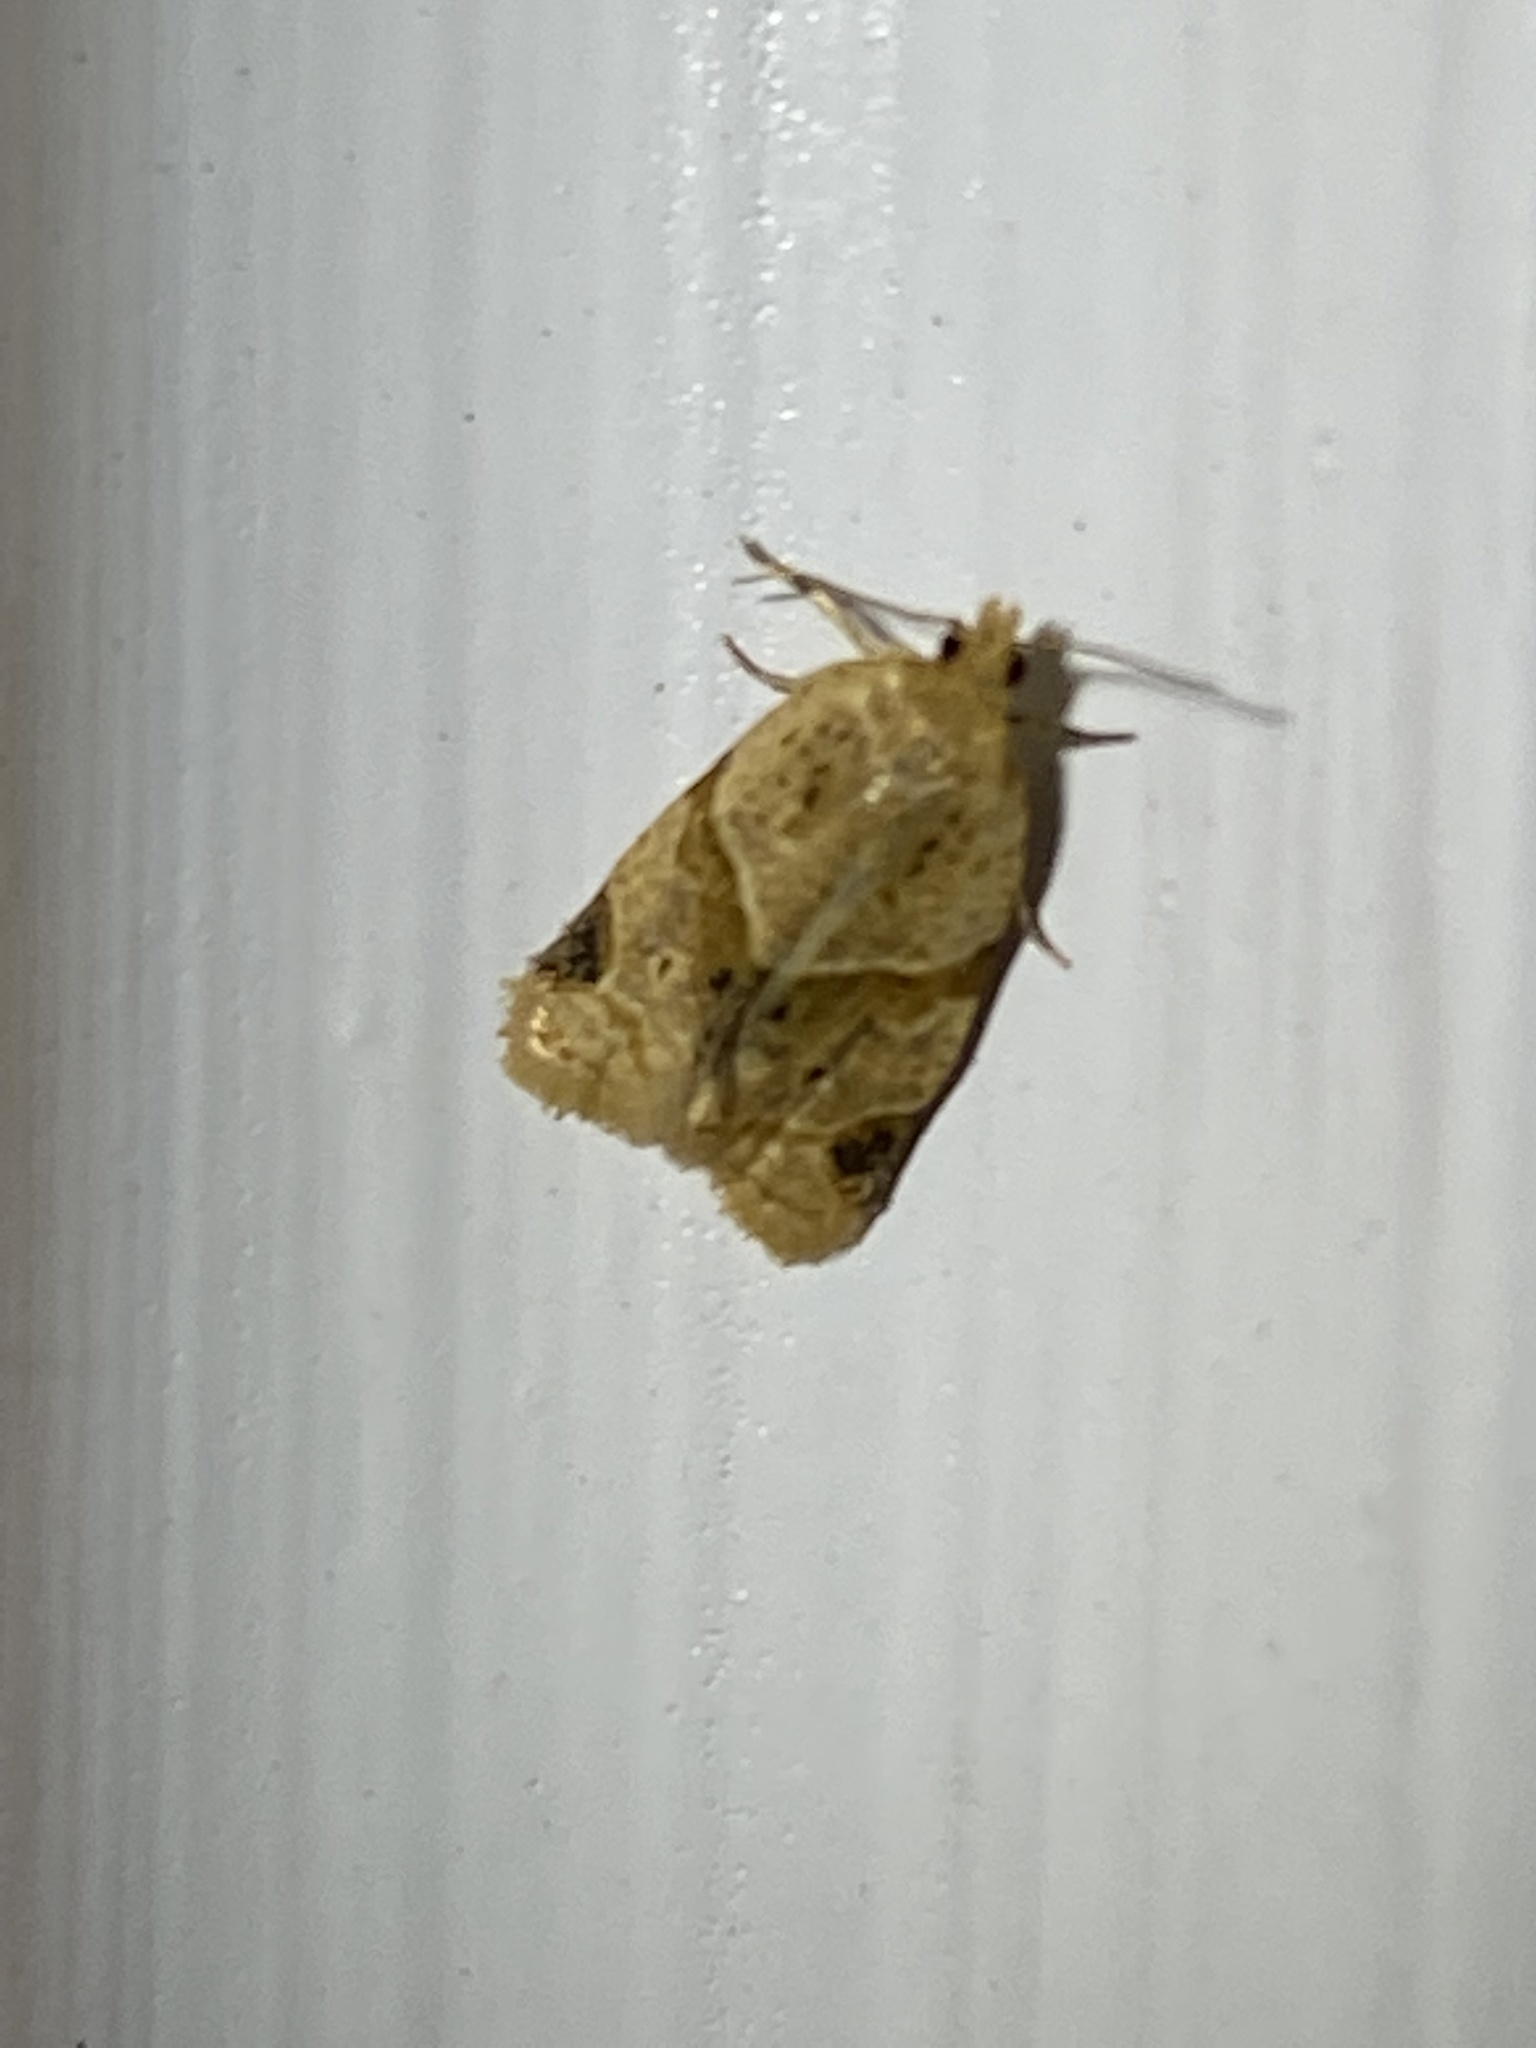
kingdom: Animalia
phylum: Arthropoda
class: Insecta
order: Lepidoptera
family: Tortricidae
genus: Clepsis
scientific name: Clepsis peritana
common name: Garden tortrix
